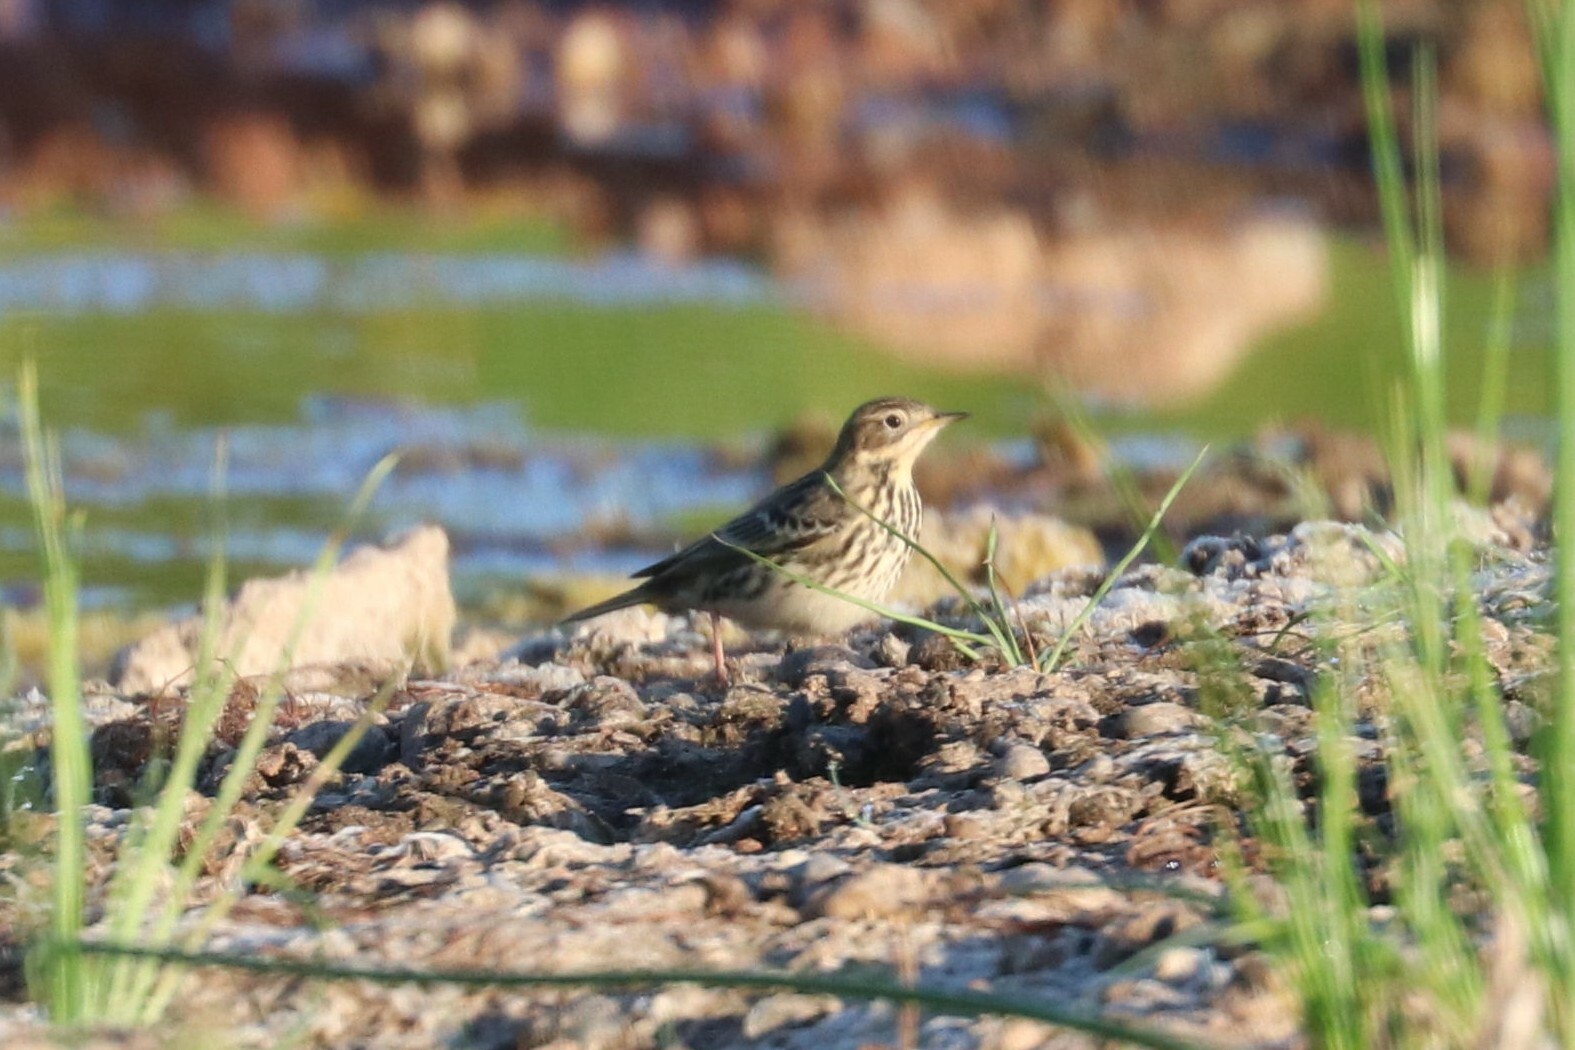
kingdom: Animalia
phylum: Chordata
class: Aves
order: Passeriformes
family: Motacillidae
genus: Anthus
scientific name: Anthus cervinus
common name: Red-throated pipit
